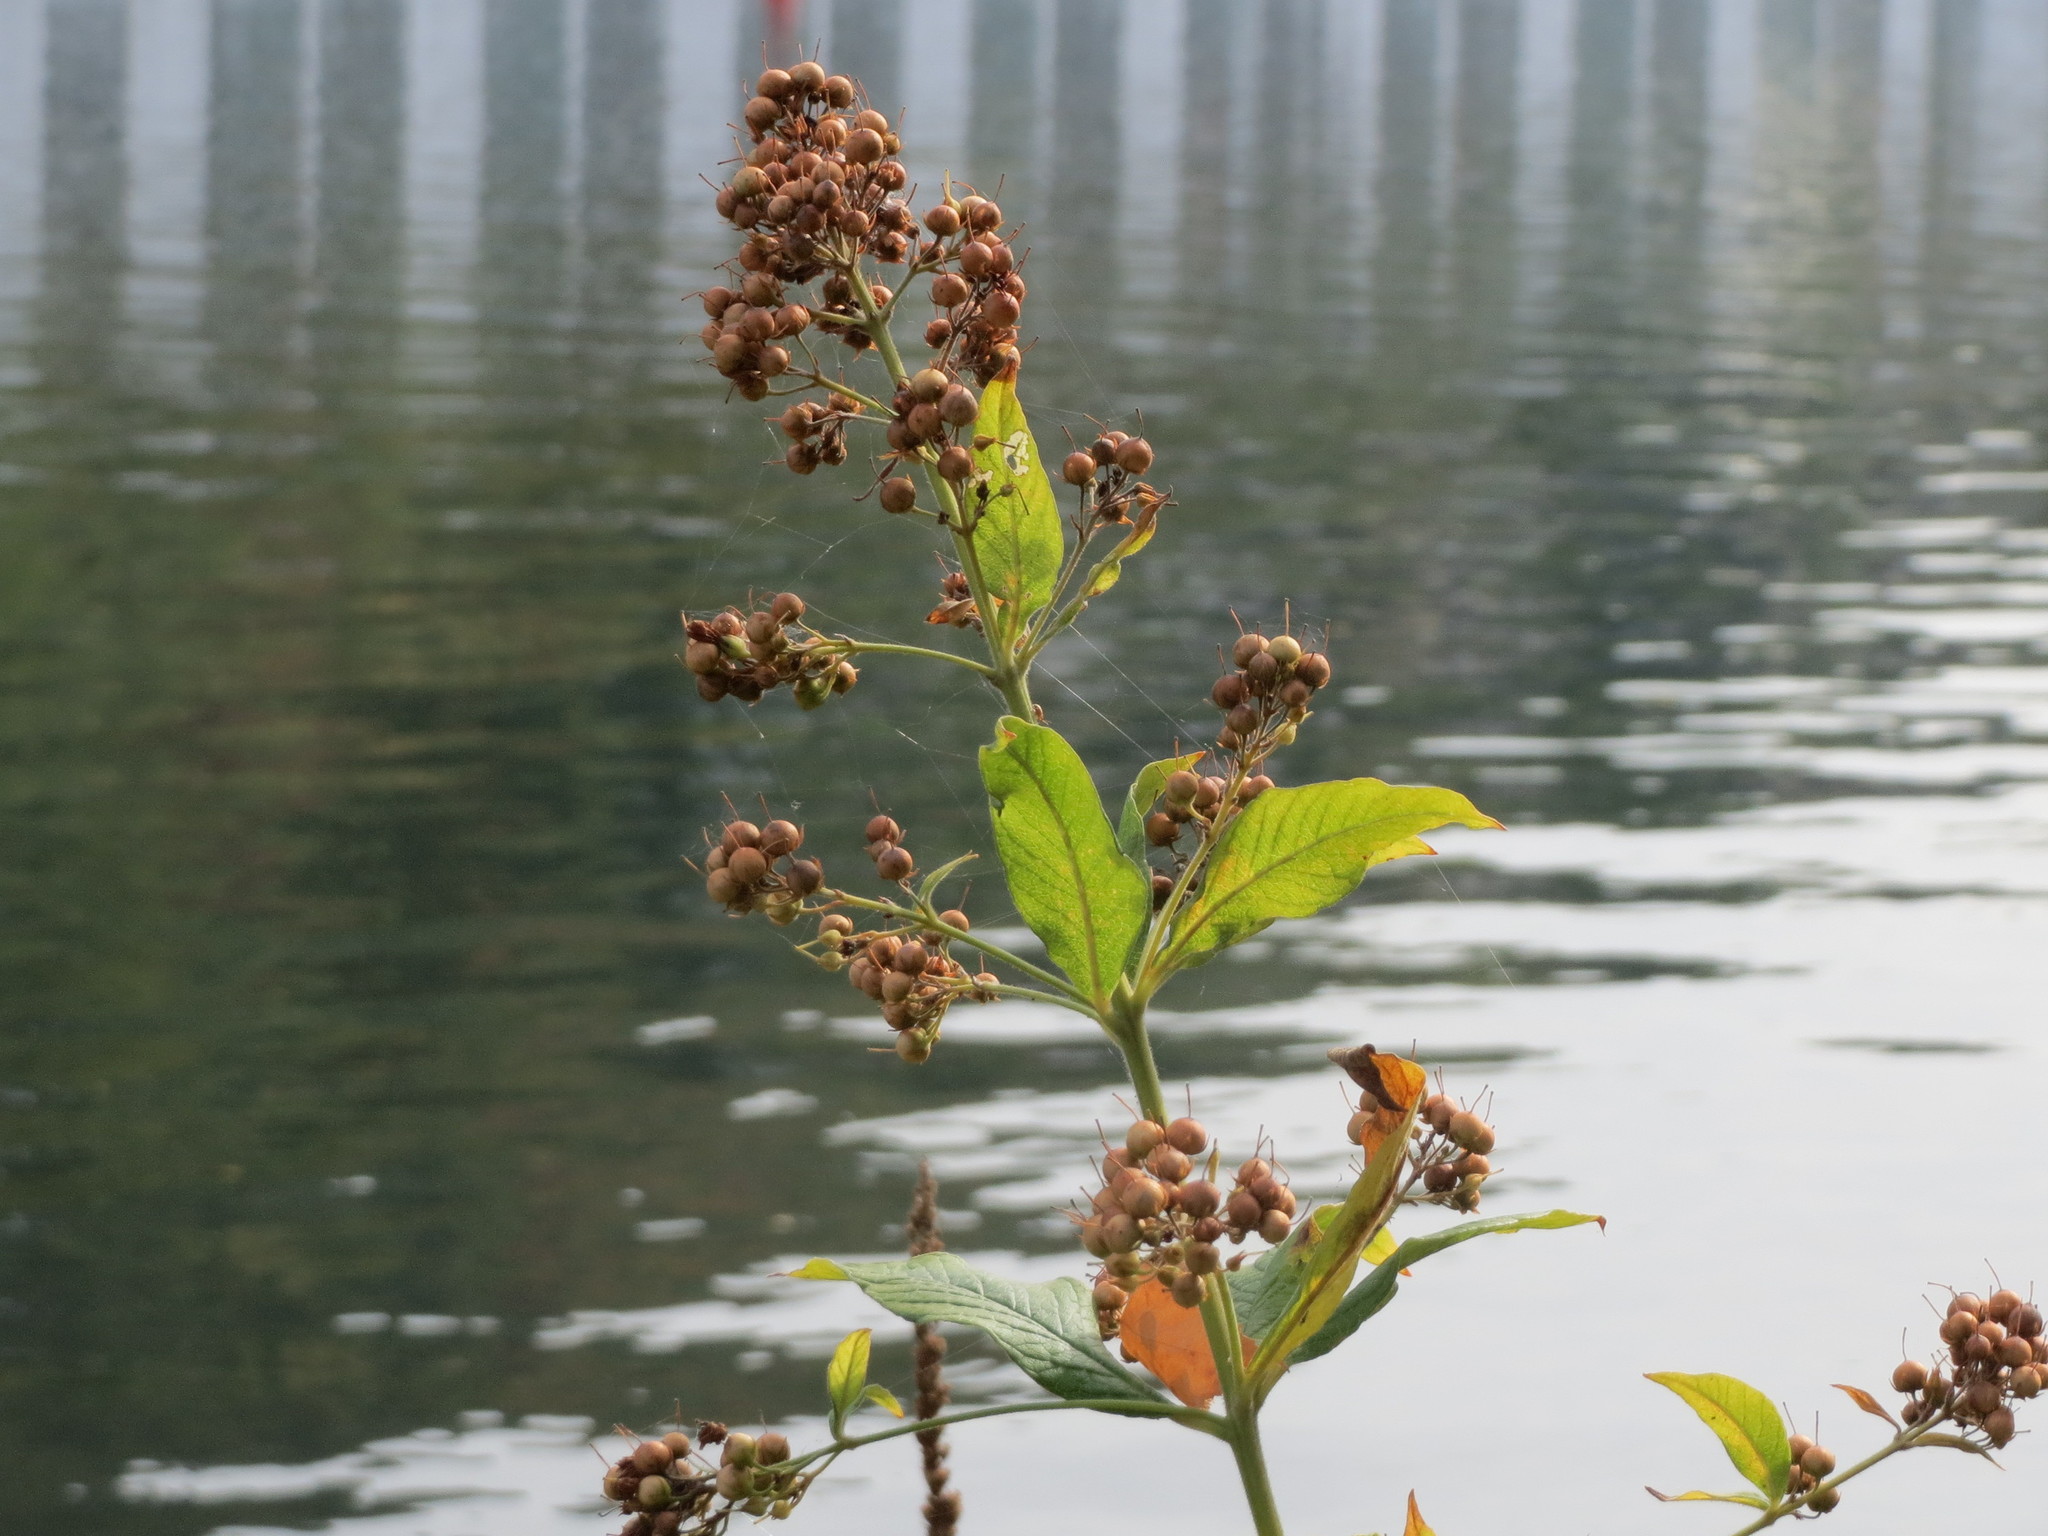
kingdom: Plantae
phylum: Tracheophyta
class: Magnoliopsida
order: Ericales
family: Primulaceae
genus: Lysimachia
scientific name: Lysimachia vulgaris
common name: Yellow loosestrife
